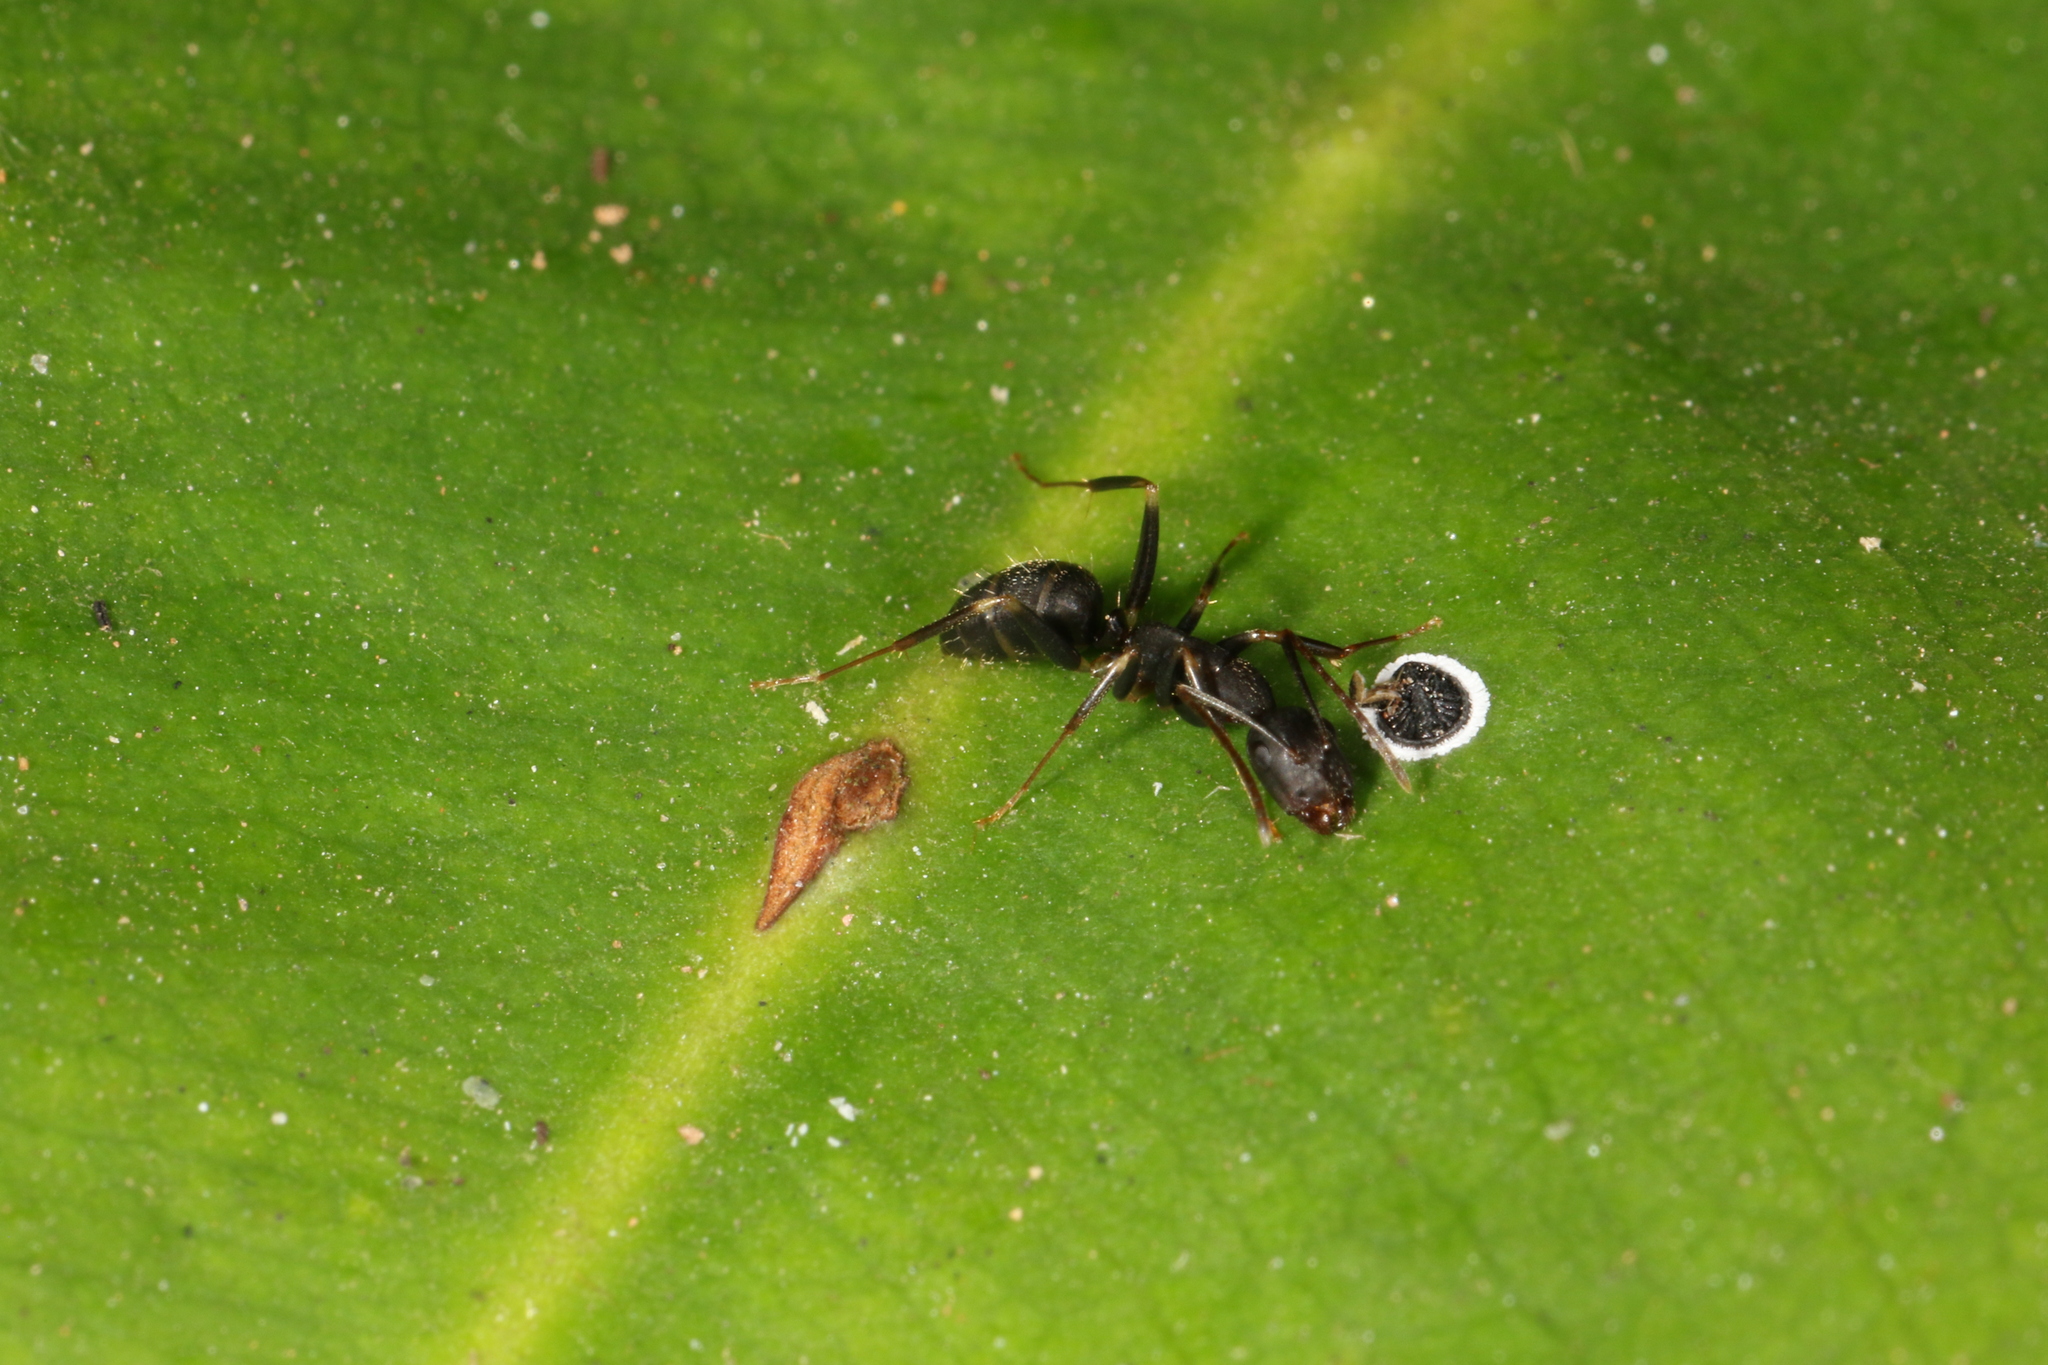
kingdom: Animalia
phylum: Arthropoda
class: Insecta
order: Hymenoptera
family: Formicidae
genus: Camponotus
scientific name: Camponotus alboannulatus
